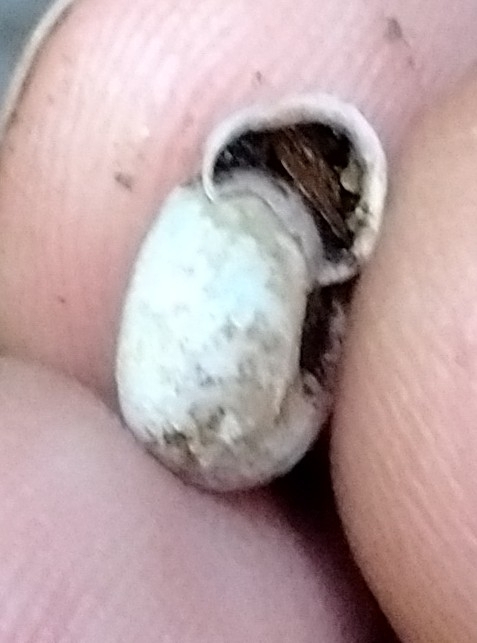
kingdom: Animalia
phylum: Mollusca
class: Gastropoda
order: Stylommatophora
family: Helicodontidae
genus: Helicodonta
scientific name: Helicodonta obvoluta
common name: Cheese snail
